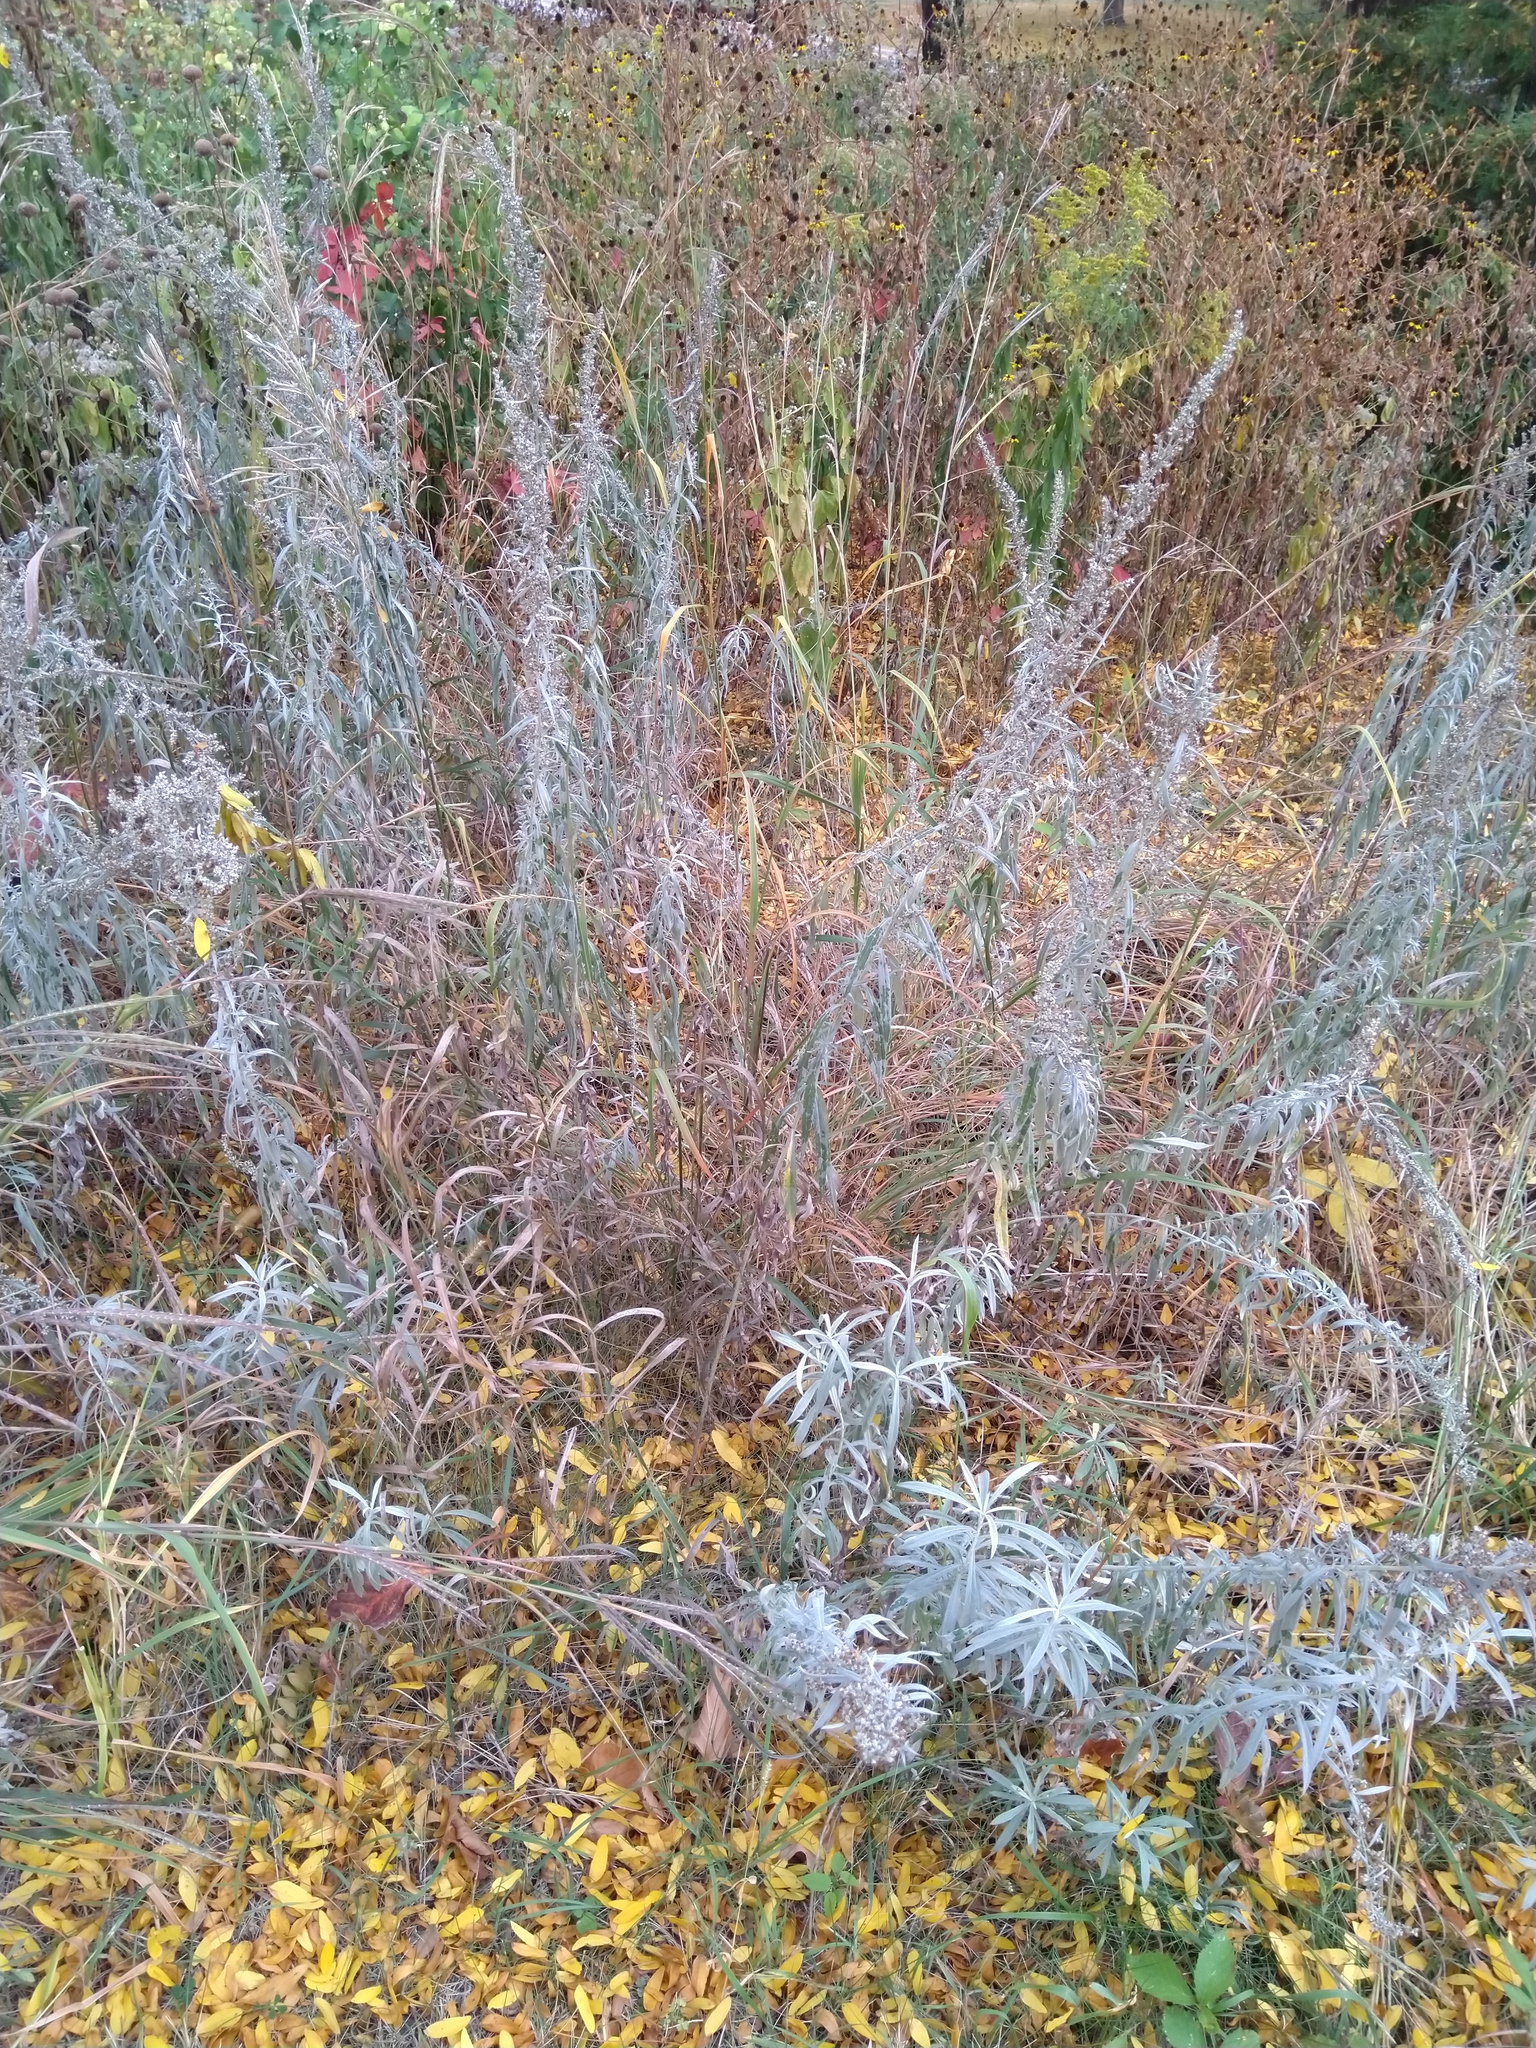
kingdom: Plantae
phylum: Tracheophyta
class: Magnoliopsida
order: Asterales
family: Asteraceae
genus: Artemisia
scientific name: Artemisia ludoviciana
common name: Western mugwort
